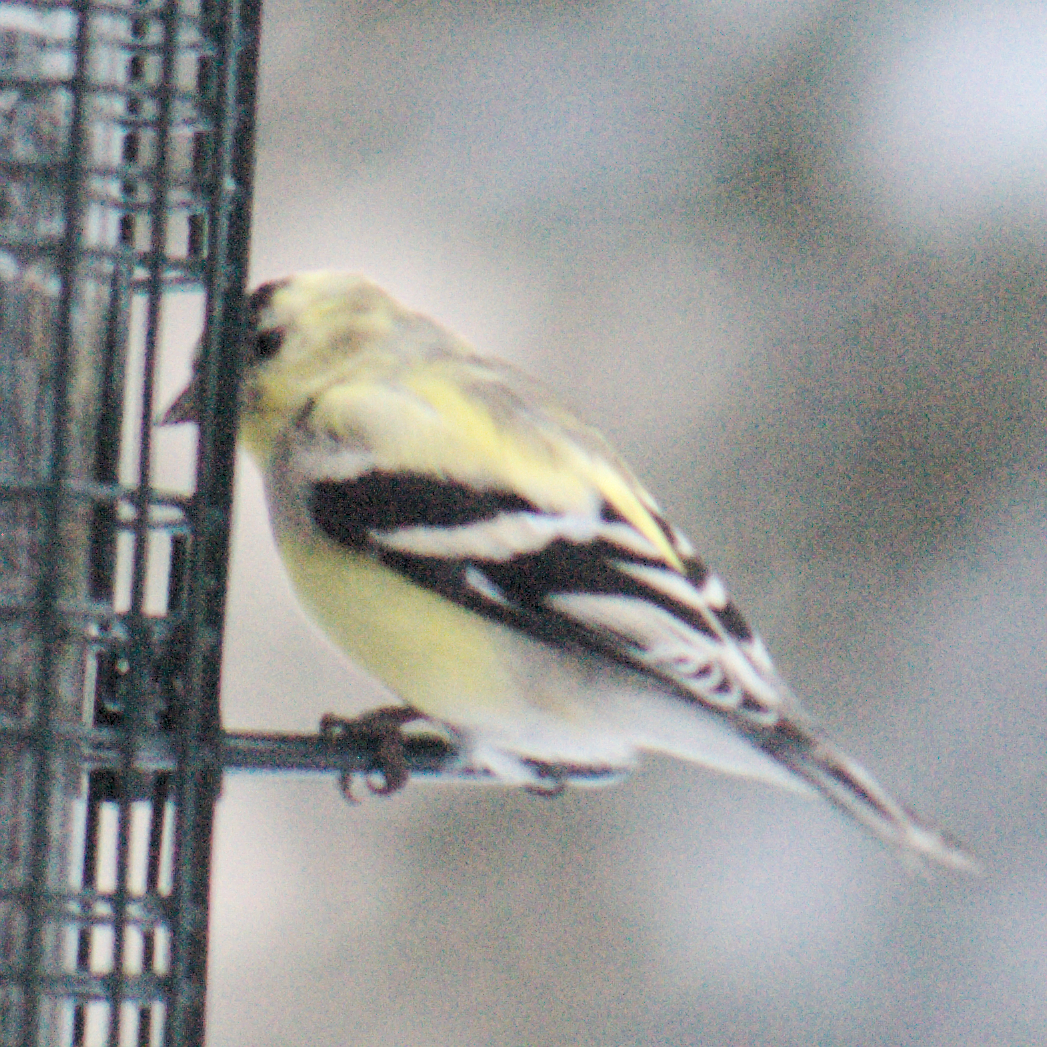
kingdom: Animalia
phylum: Chordata
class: Aves
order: Passeriformes
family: Fringillidae
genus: Spinus
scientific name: Spinus tristis
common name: American goldfinch
